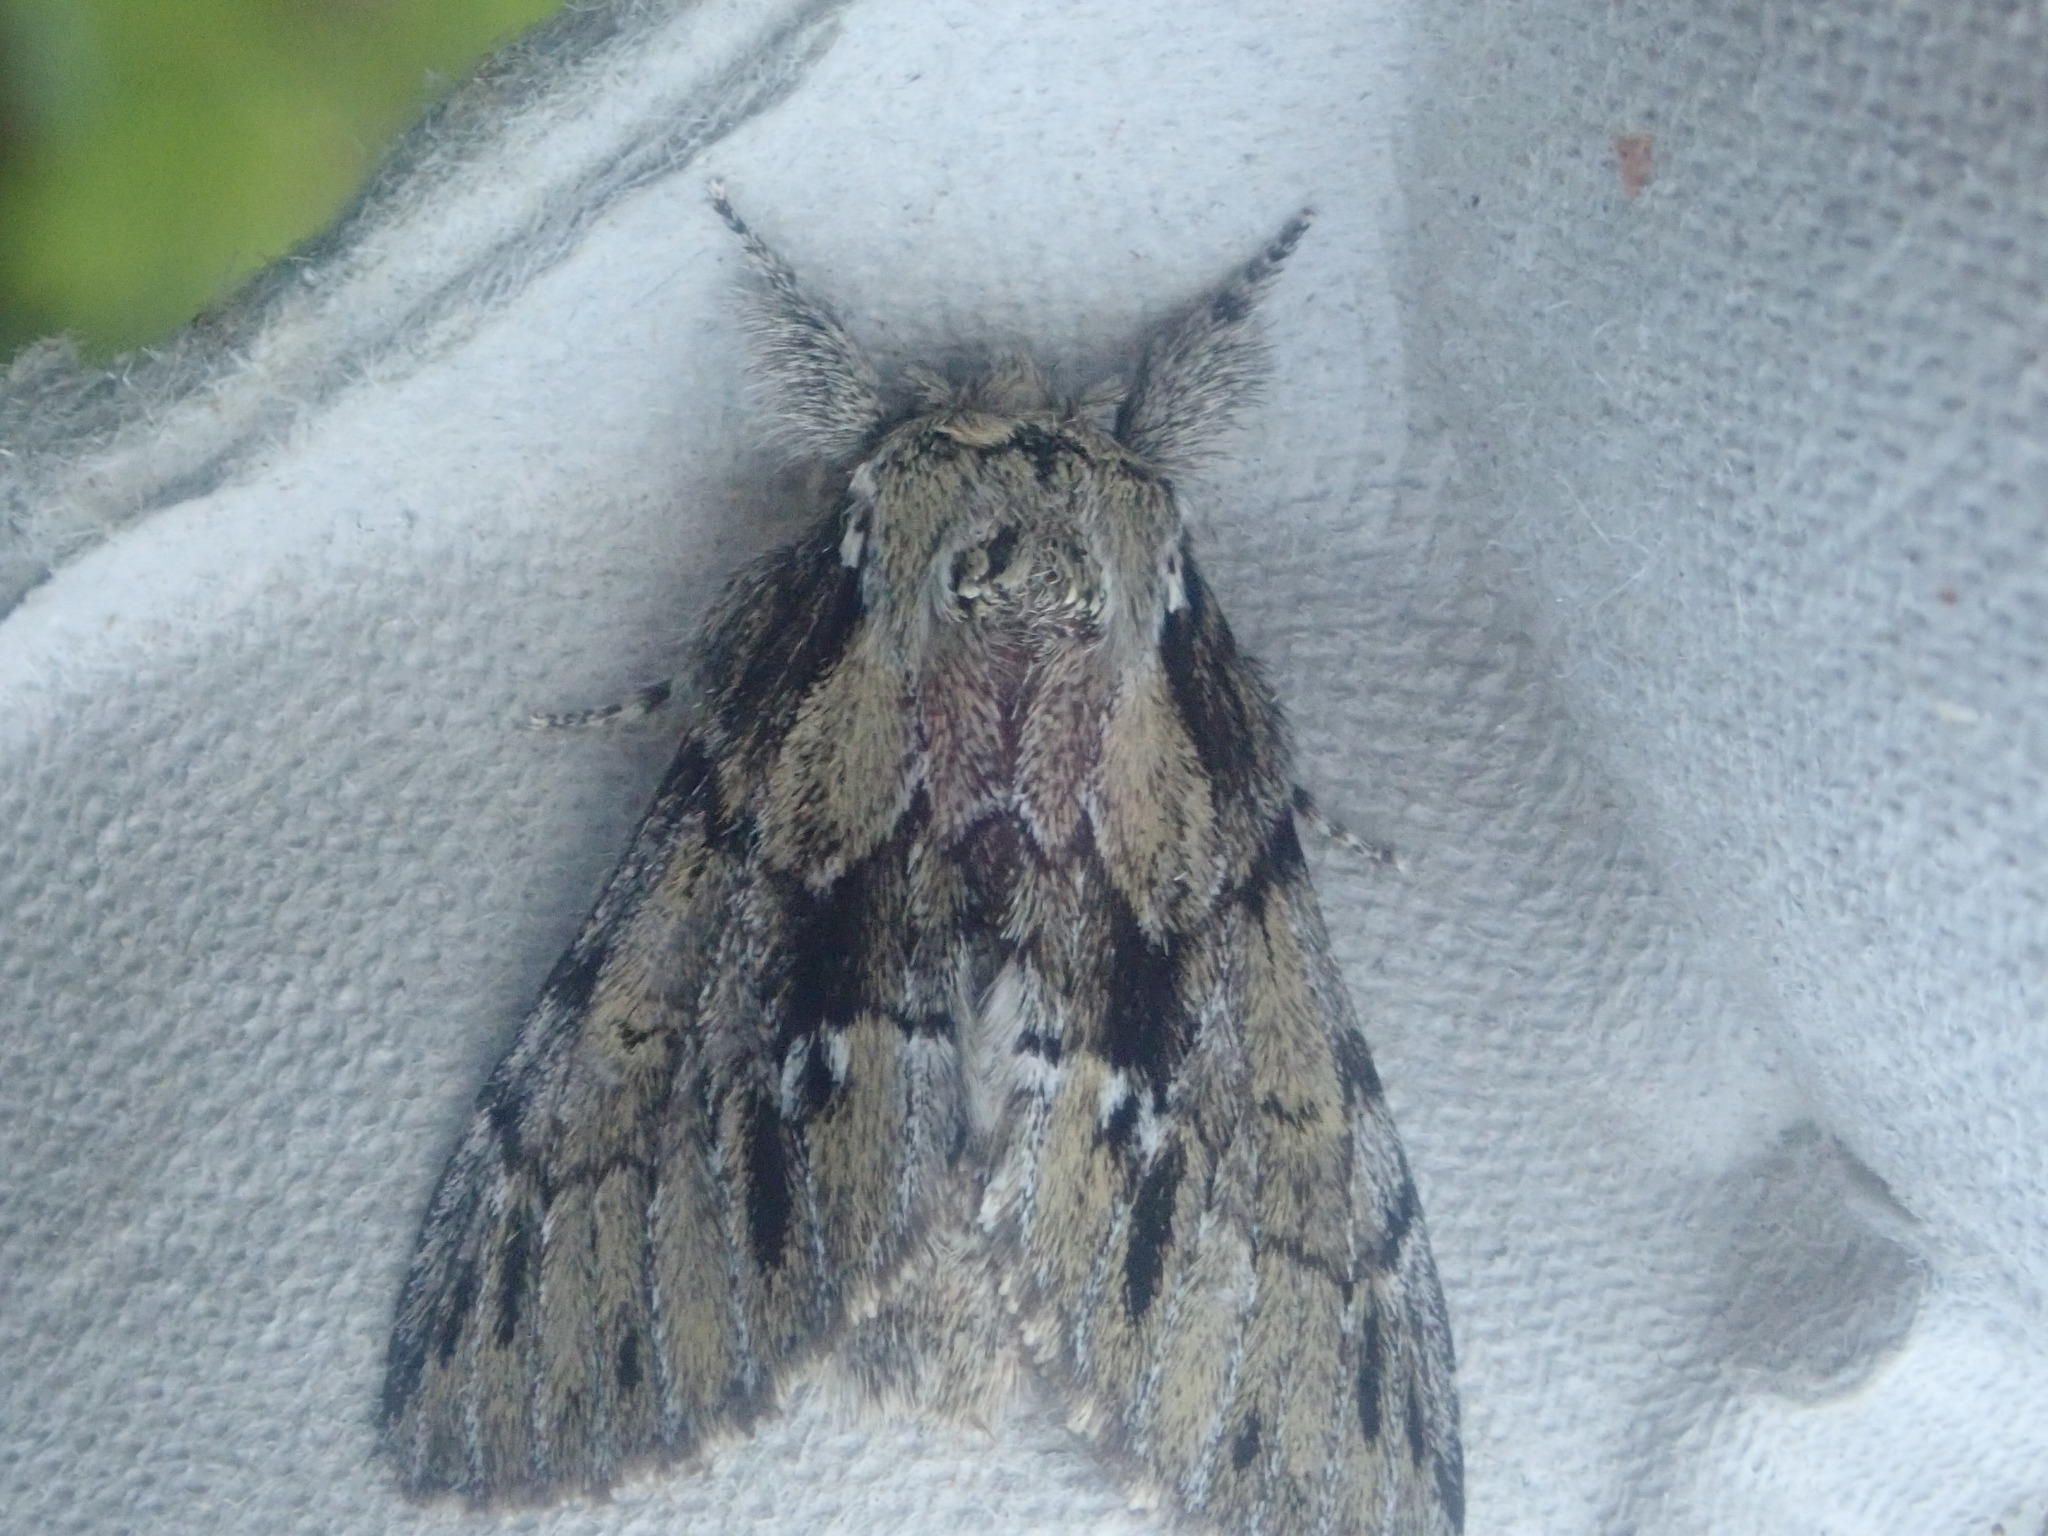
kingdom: Animalia
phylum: Arthropoda
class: Insecta
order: Lepidoptera
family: Notodontidae
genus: Paraeschra
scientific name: Paraeschra georgica
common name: Georgian prominent
